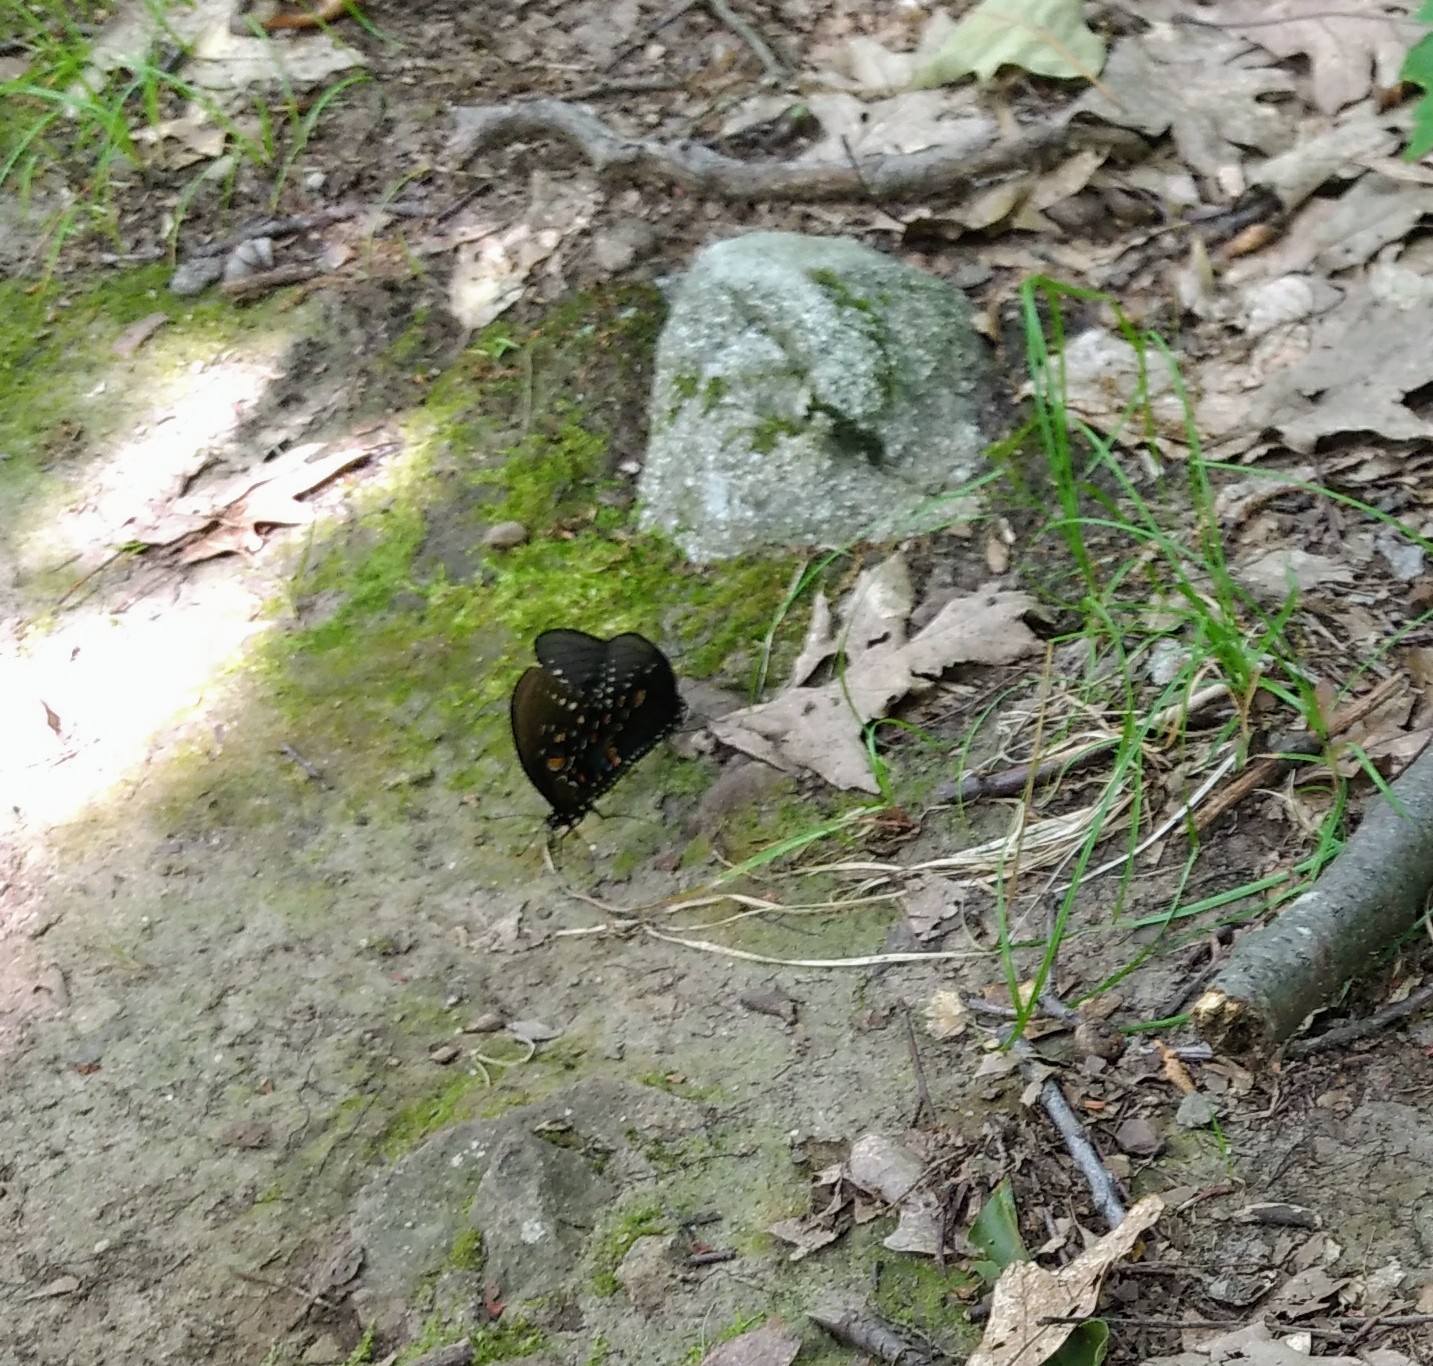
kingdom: Animalia
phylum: Arthropoda
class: Insecta
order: Lepidoptera
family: Papilionidae
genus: Papilio
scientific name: Papilio troilus
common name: Spicebush swallowtail
